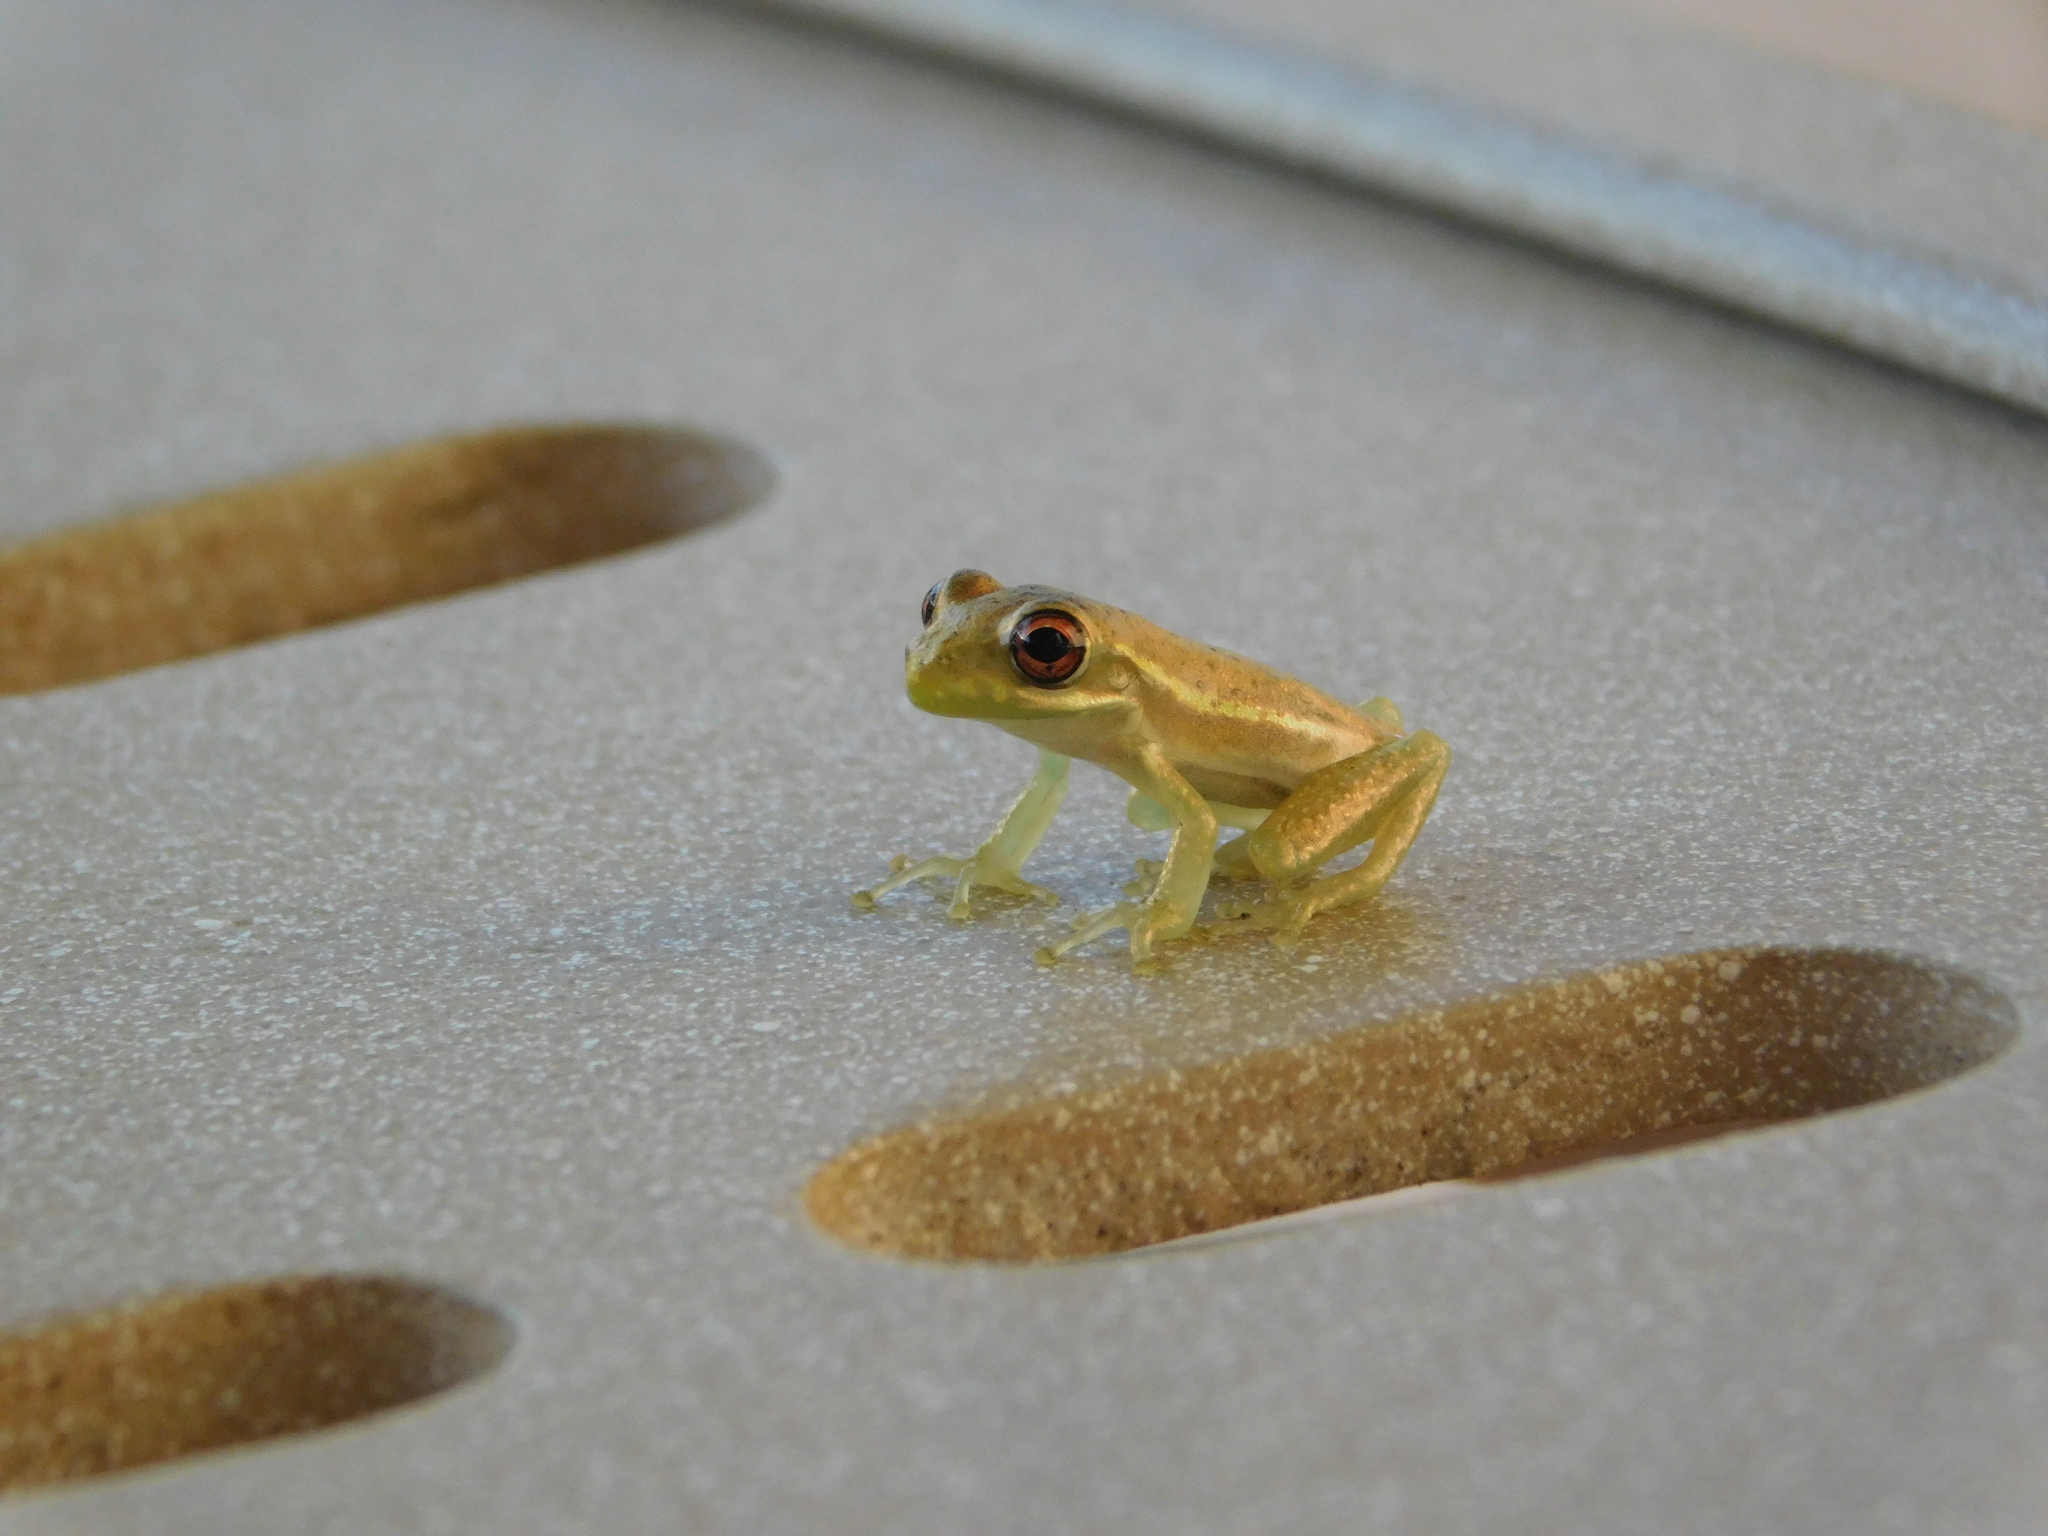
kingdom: Animalia
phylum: Chordata
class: Amphibia
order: Anura
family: Hylidae
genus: Osteopilus
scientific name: Osteopilus septentrionalis
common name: Cuban treefrog
